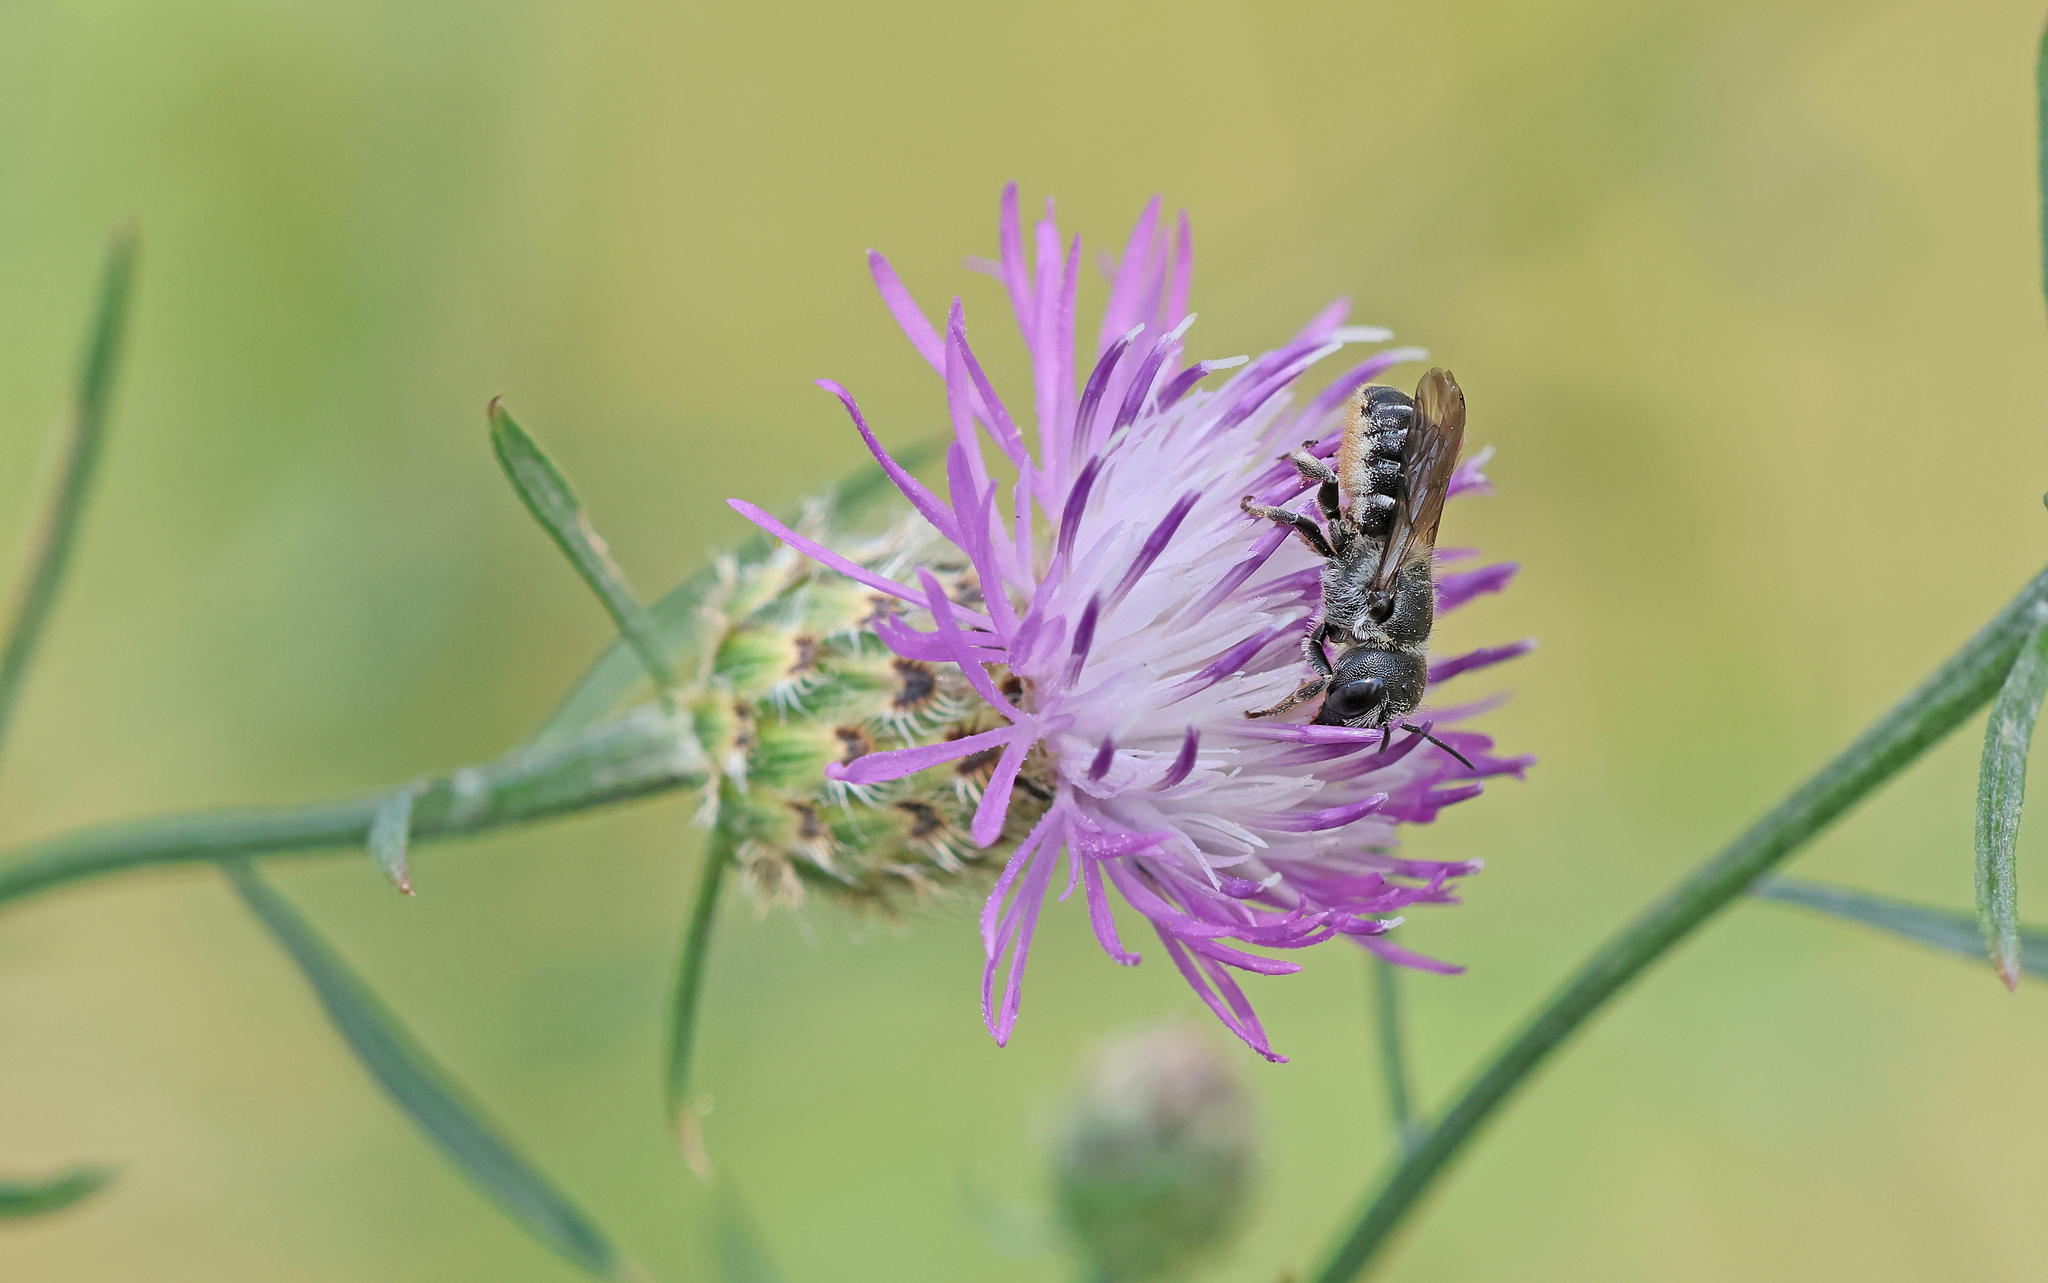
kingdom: Animalia
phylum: Arthropoda
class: Insecta
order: Hymenoptera
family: Megachilidae
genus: Osmia
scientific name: Osmia bidentata
